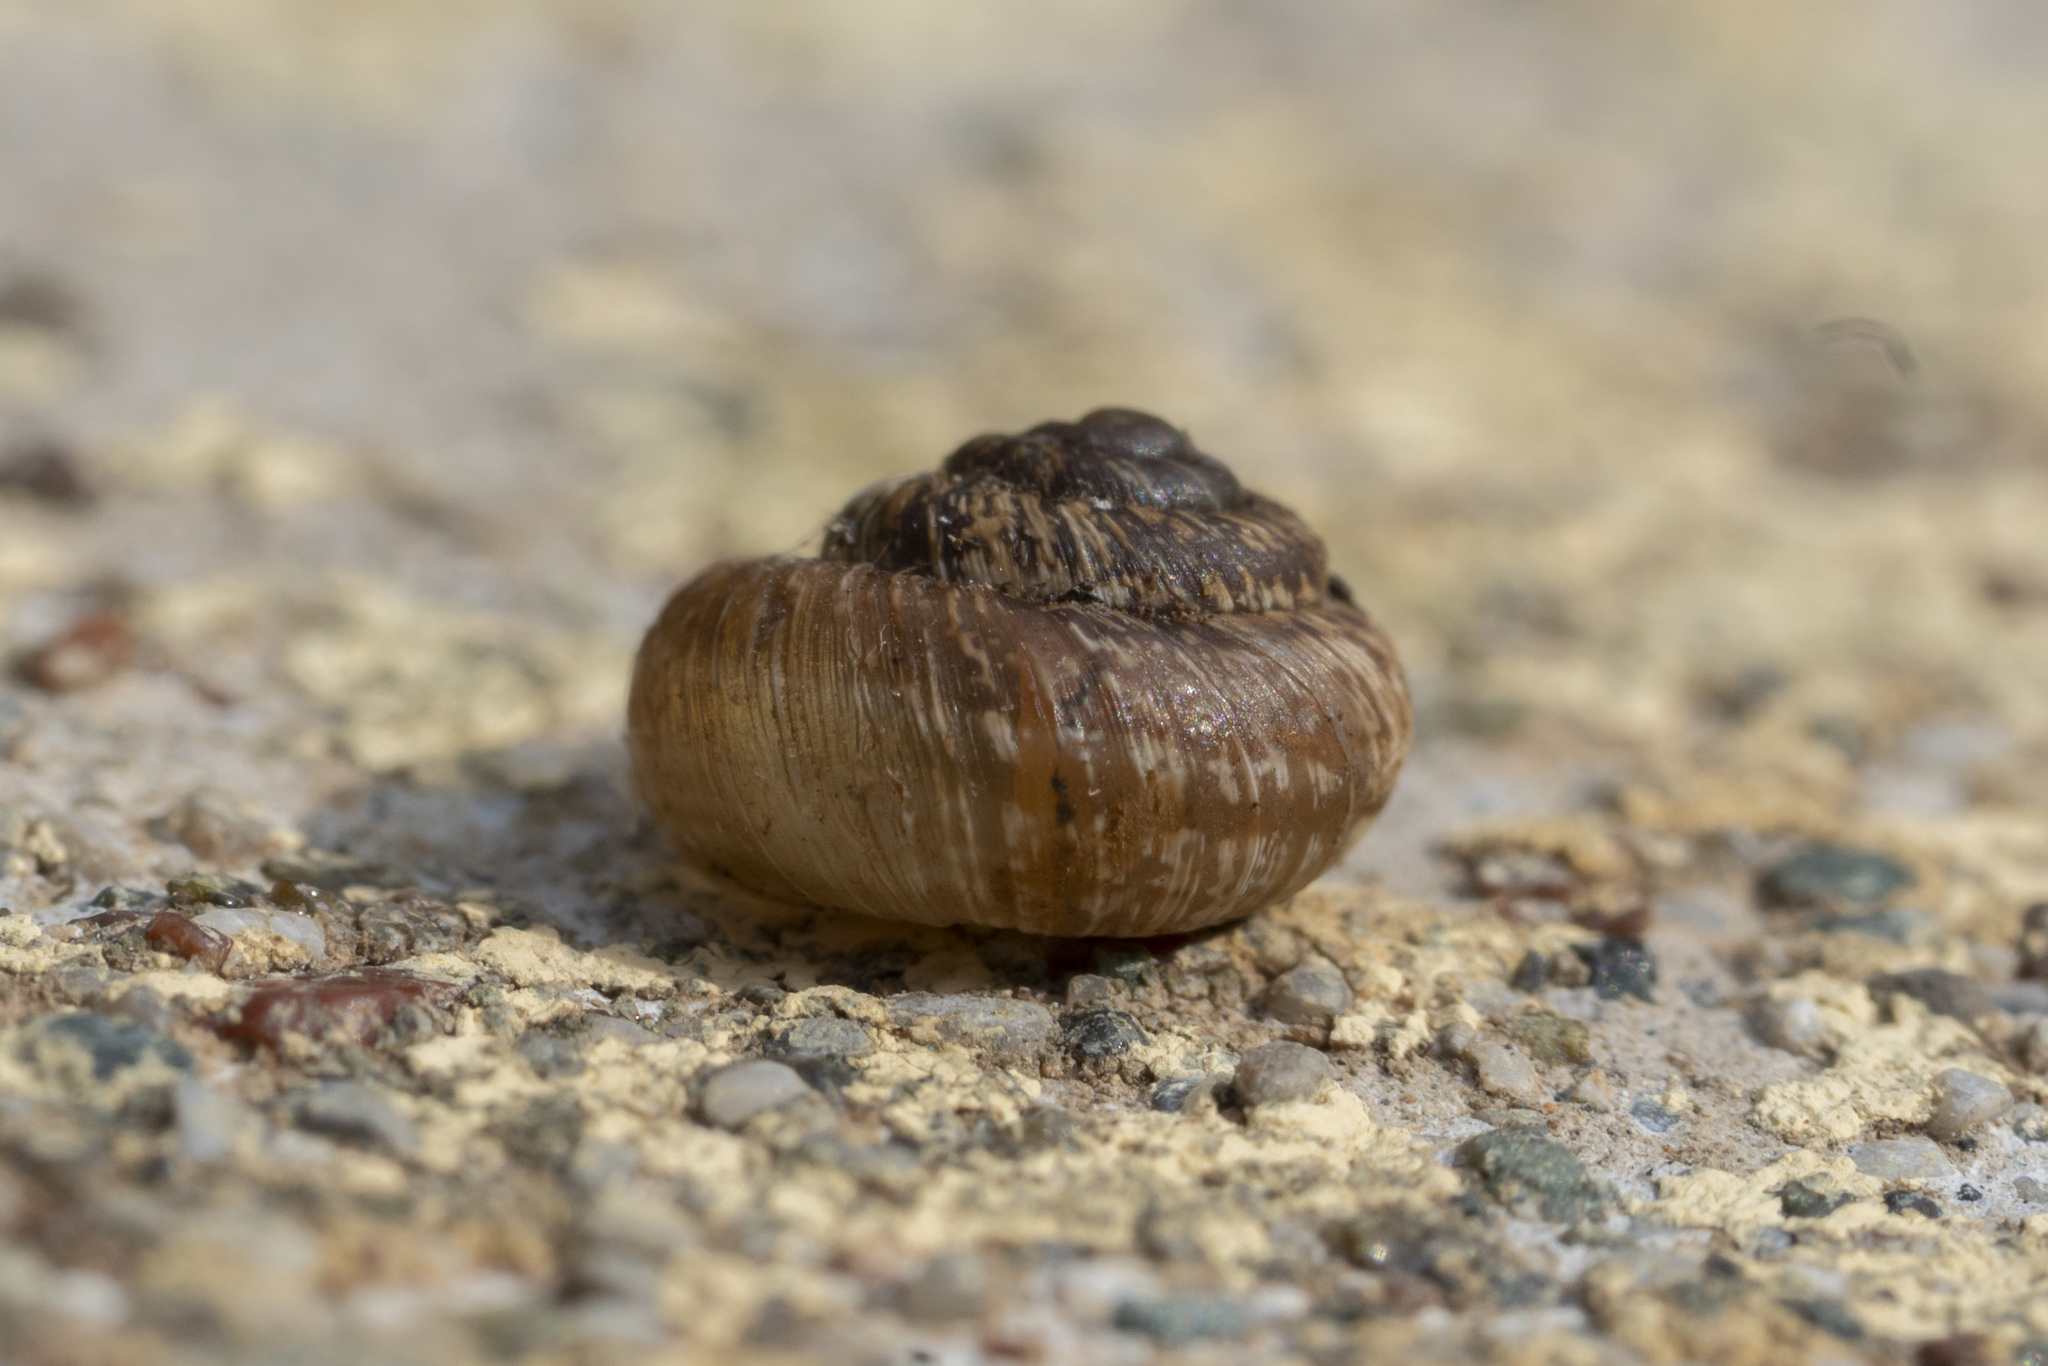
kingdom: Animalia
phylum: Mollusca
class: Gastropoda
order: Stylommatophora
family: Geomitridae
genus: Xerotricha
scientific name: Xerotricha conspurcata
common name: Snail
